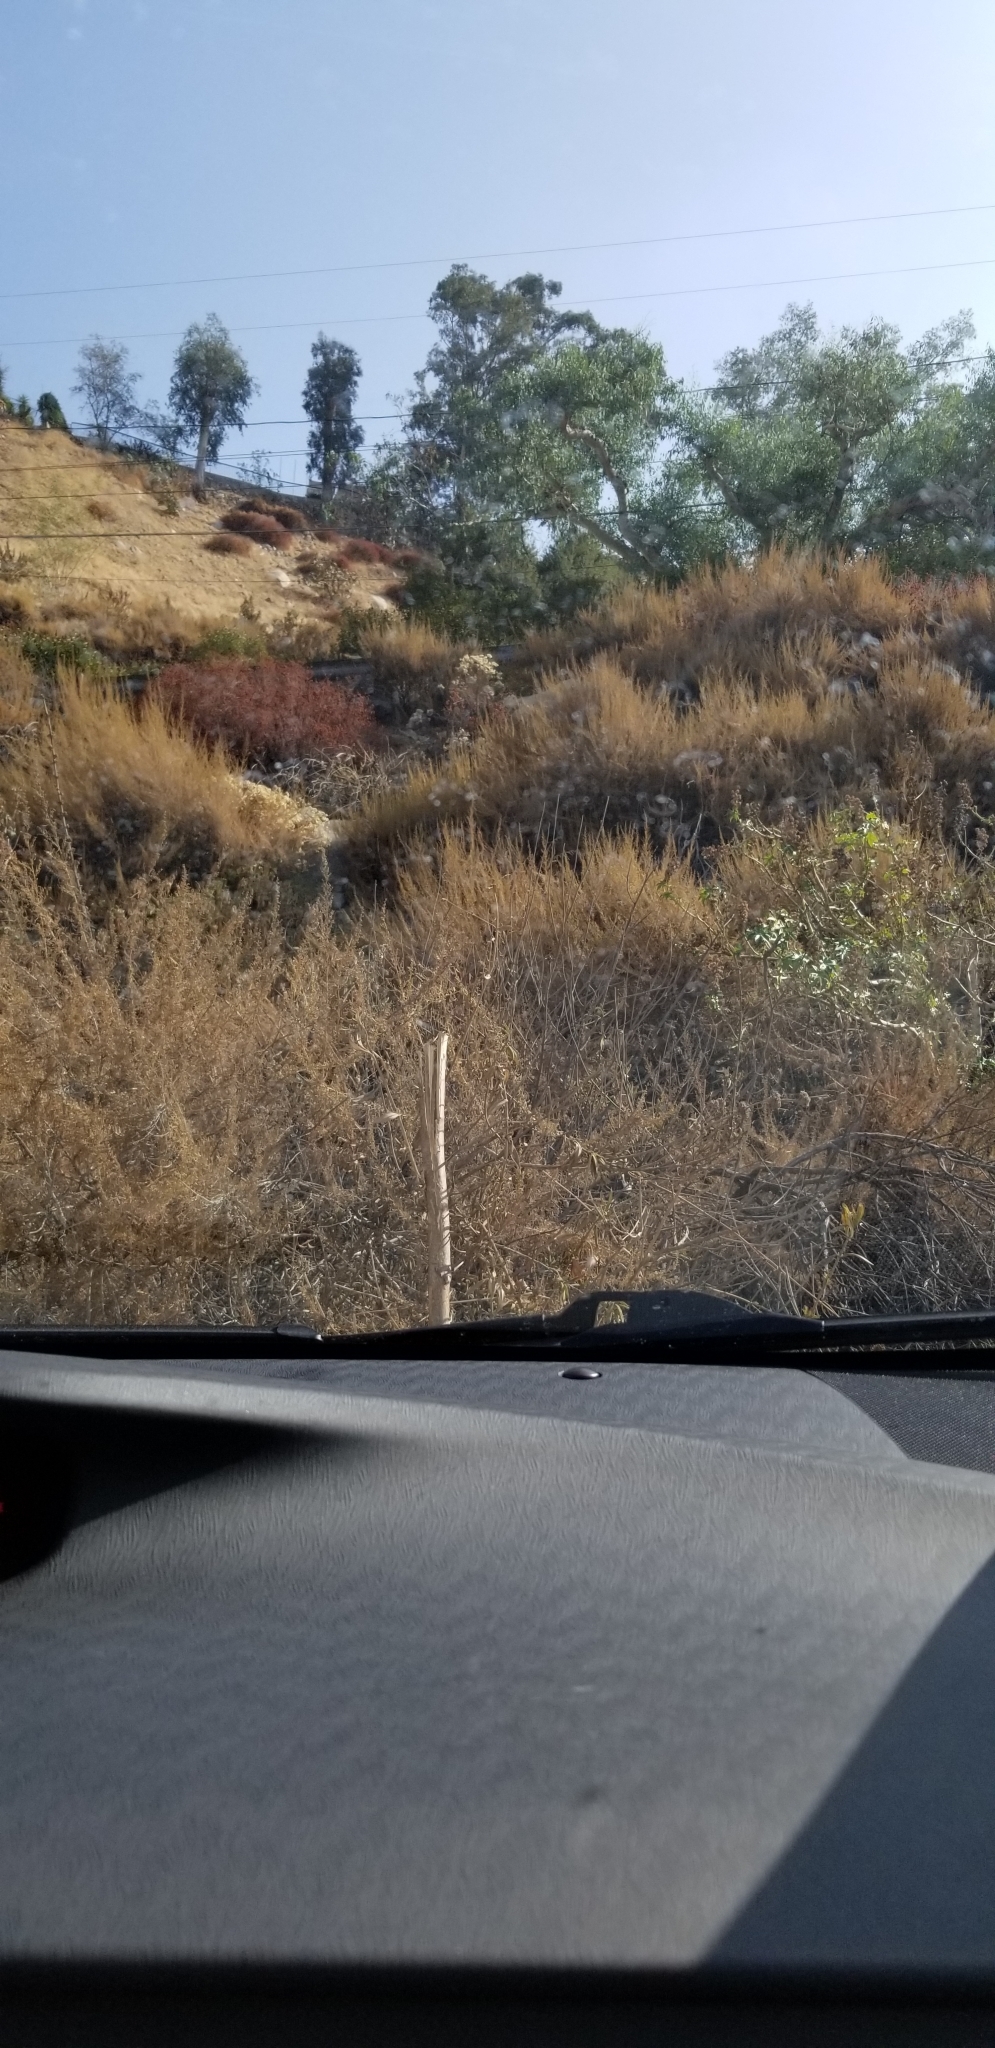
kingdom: Plantae
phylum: Tracheophyta
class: Magnoliopsida
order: Asterales
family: Asteraceae
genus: Artemisia
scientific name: Artemisia californica
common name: California sagebrush
